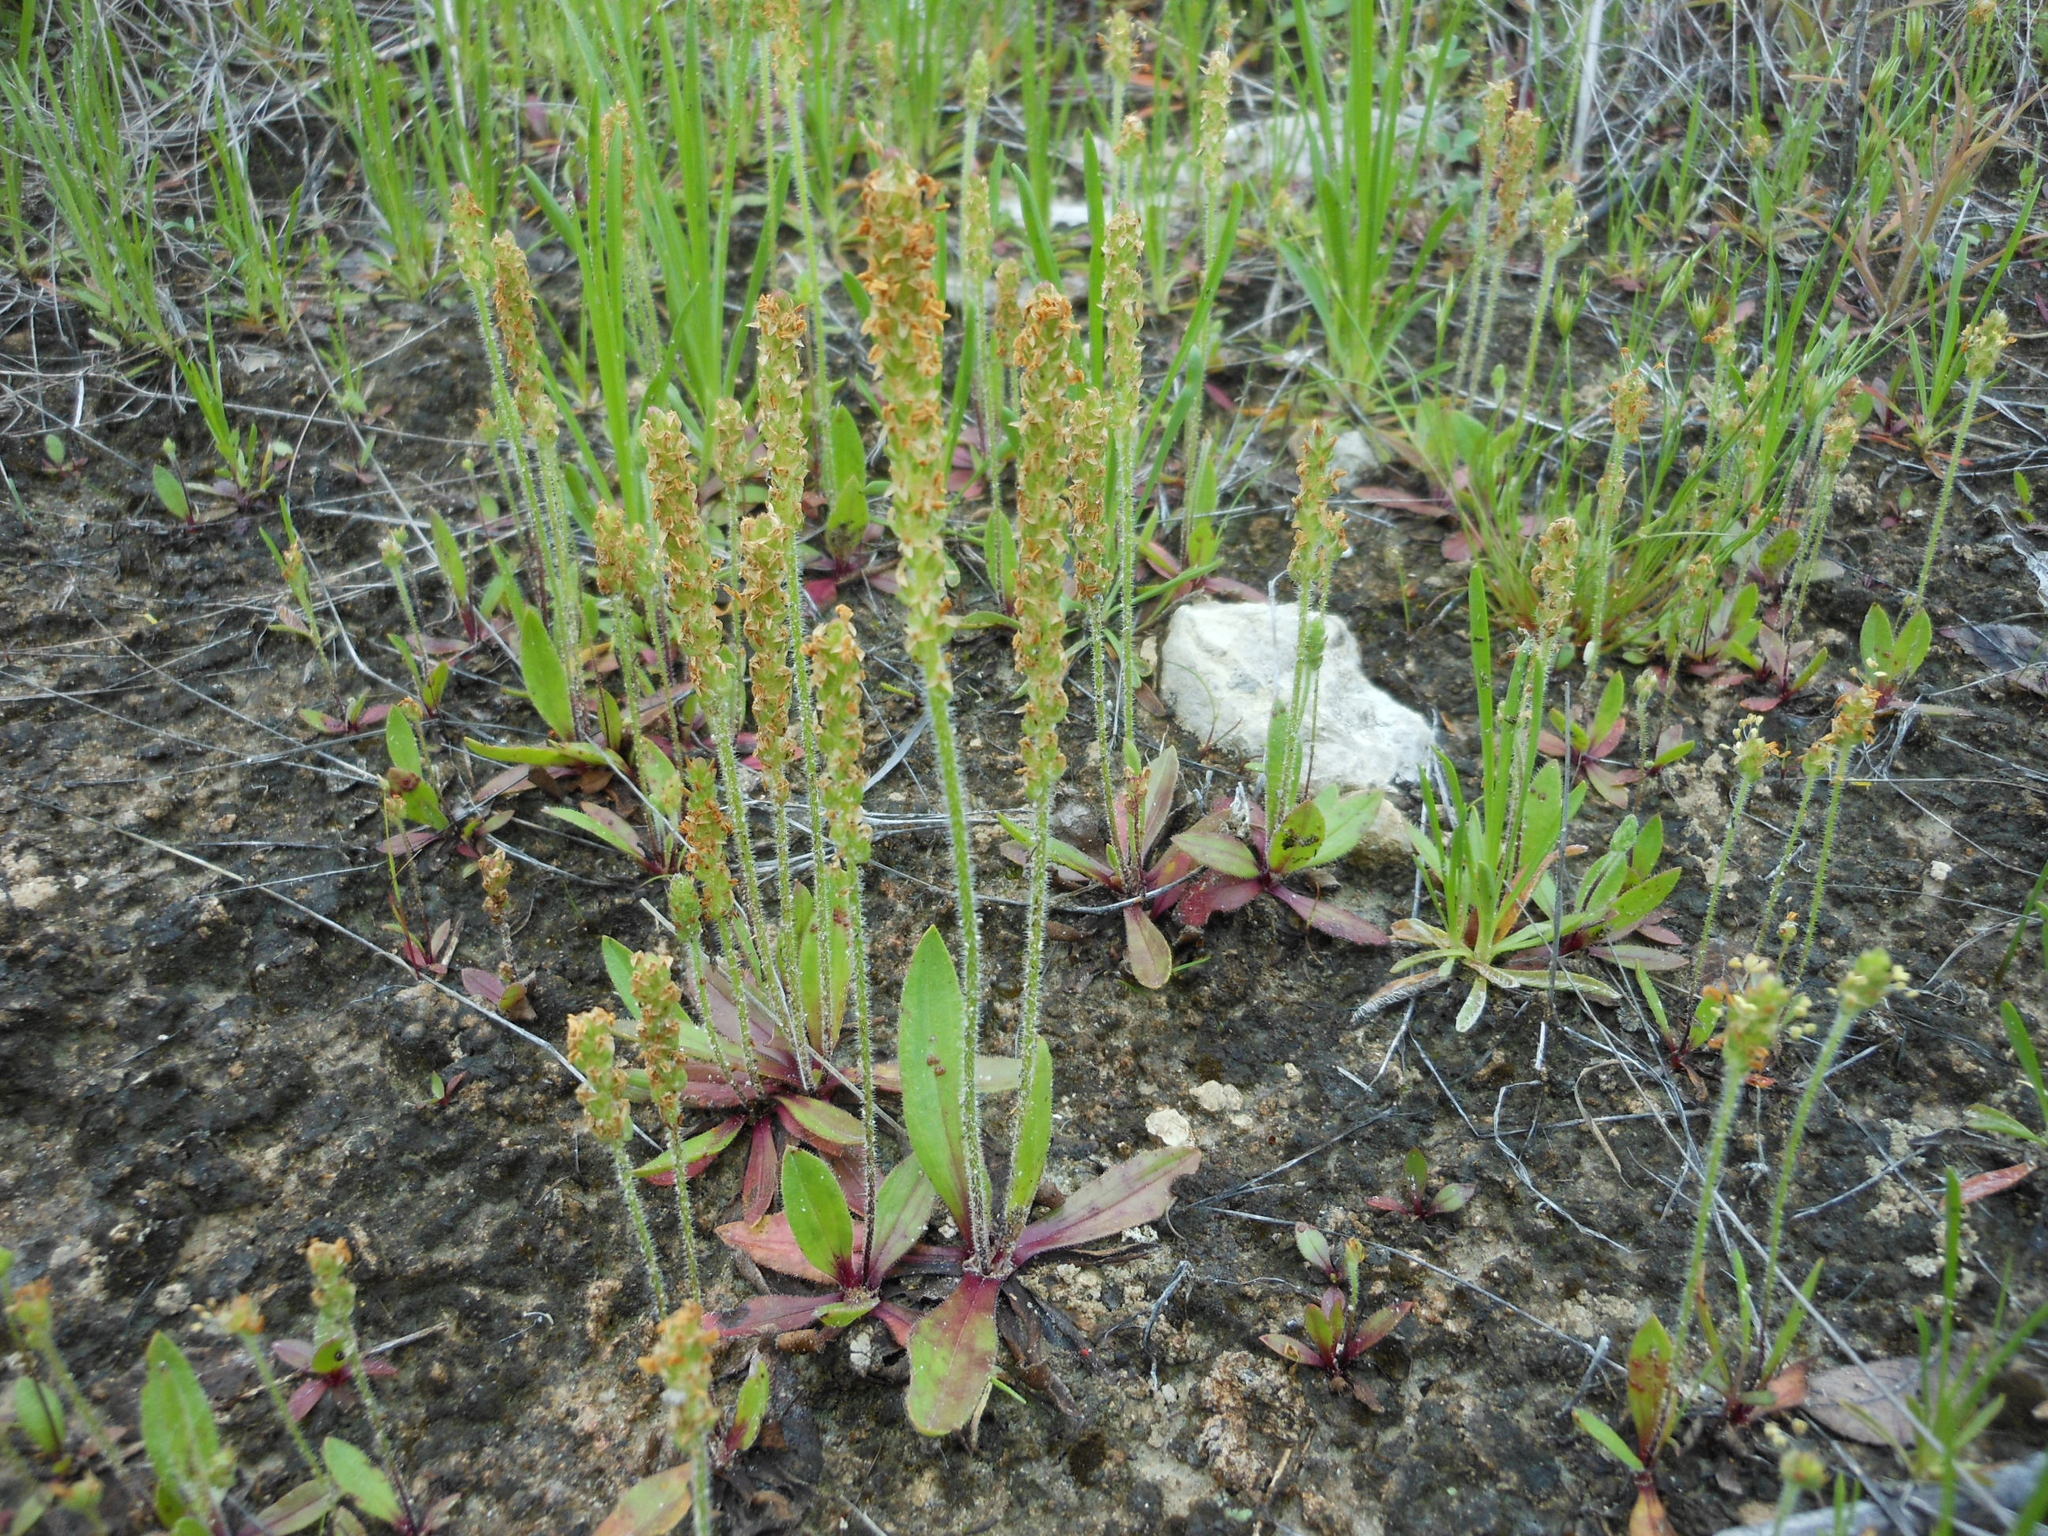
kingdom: Plantae
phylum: Tracheophyta
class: Magnoliopsida
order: Lamiales
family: Plantaginaceae
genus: Plantago
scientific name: Plantago virginica
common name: Hoary plantain
